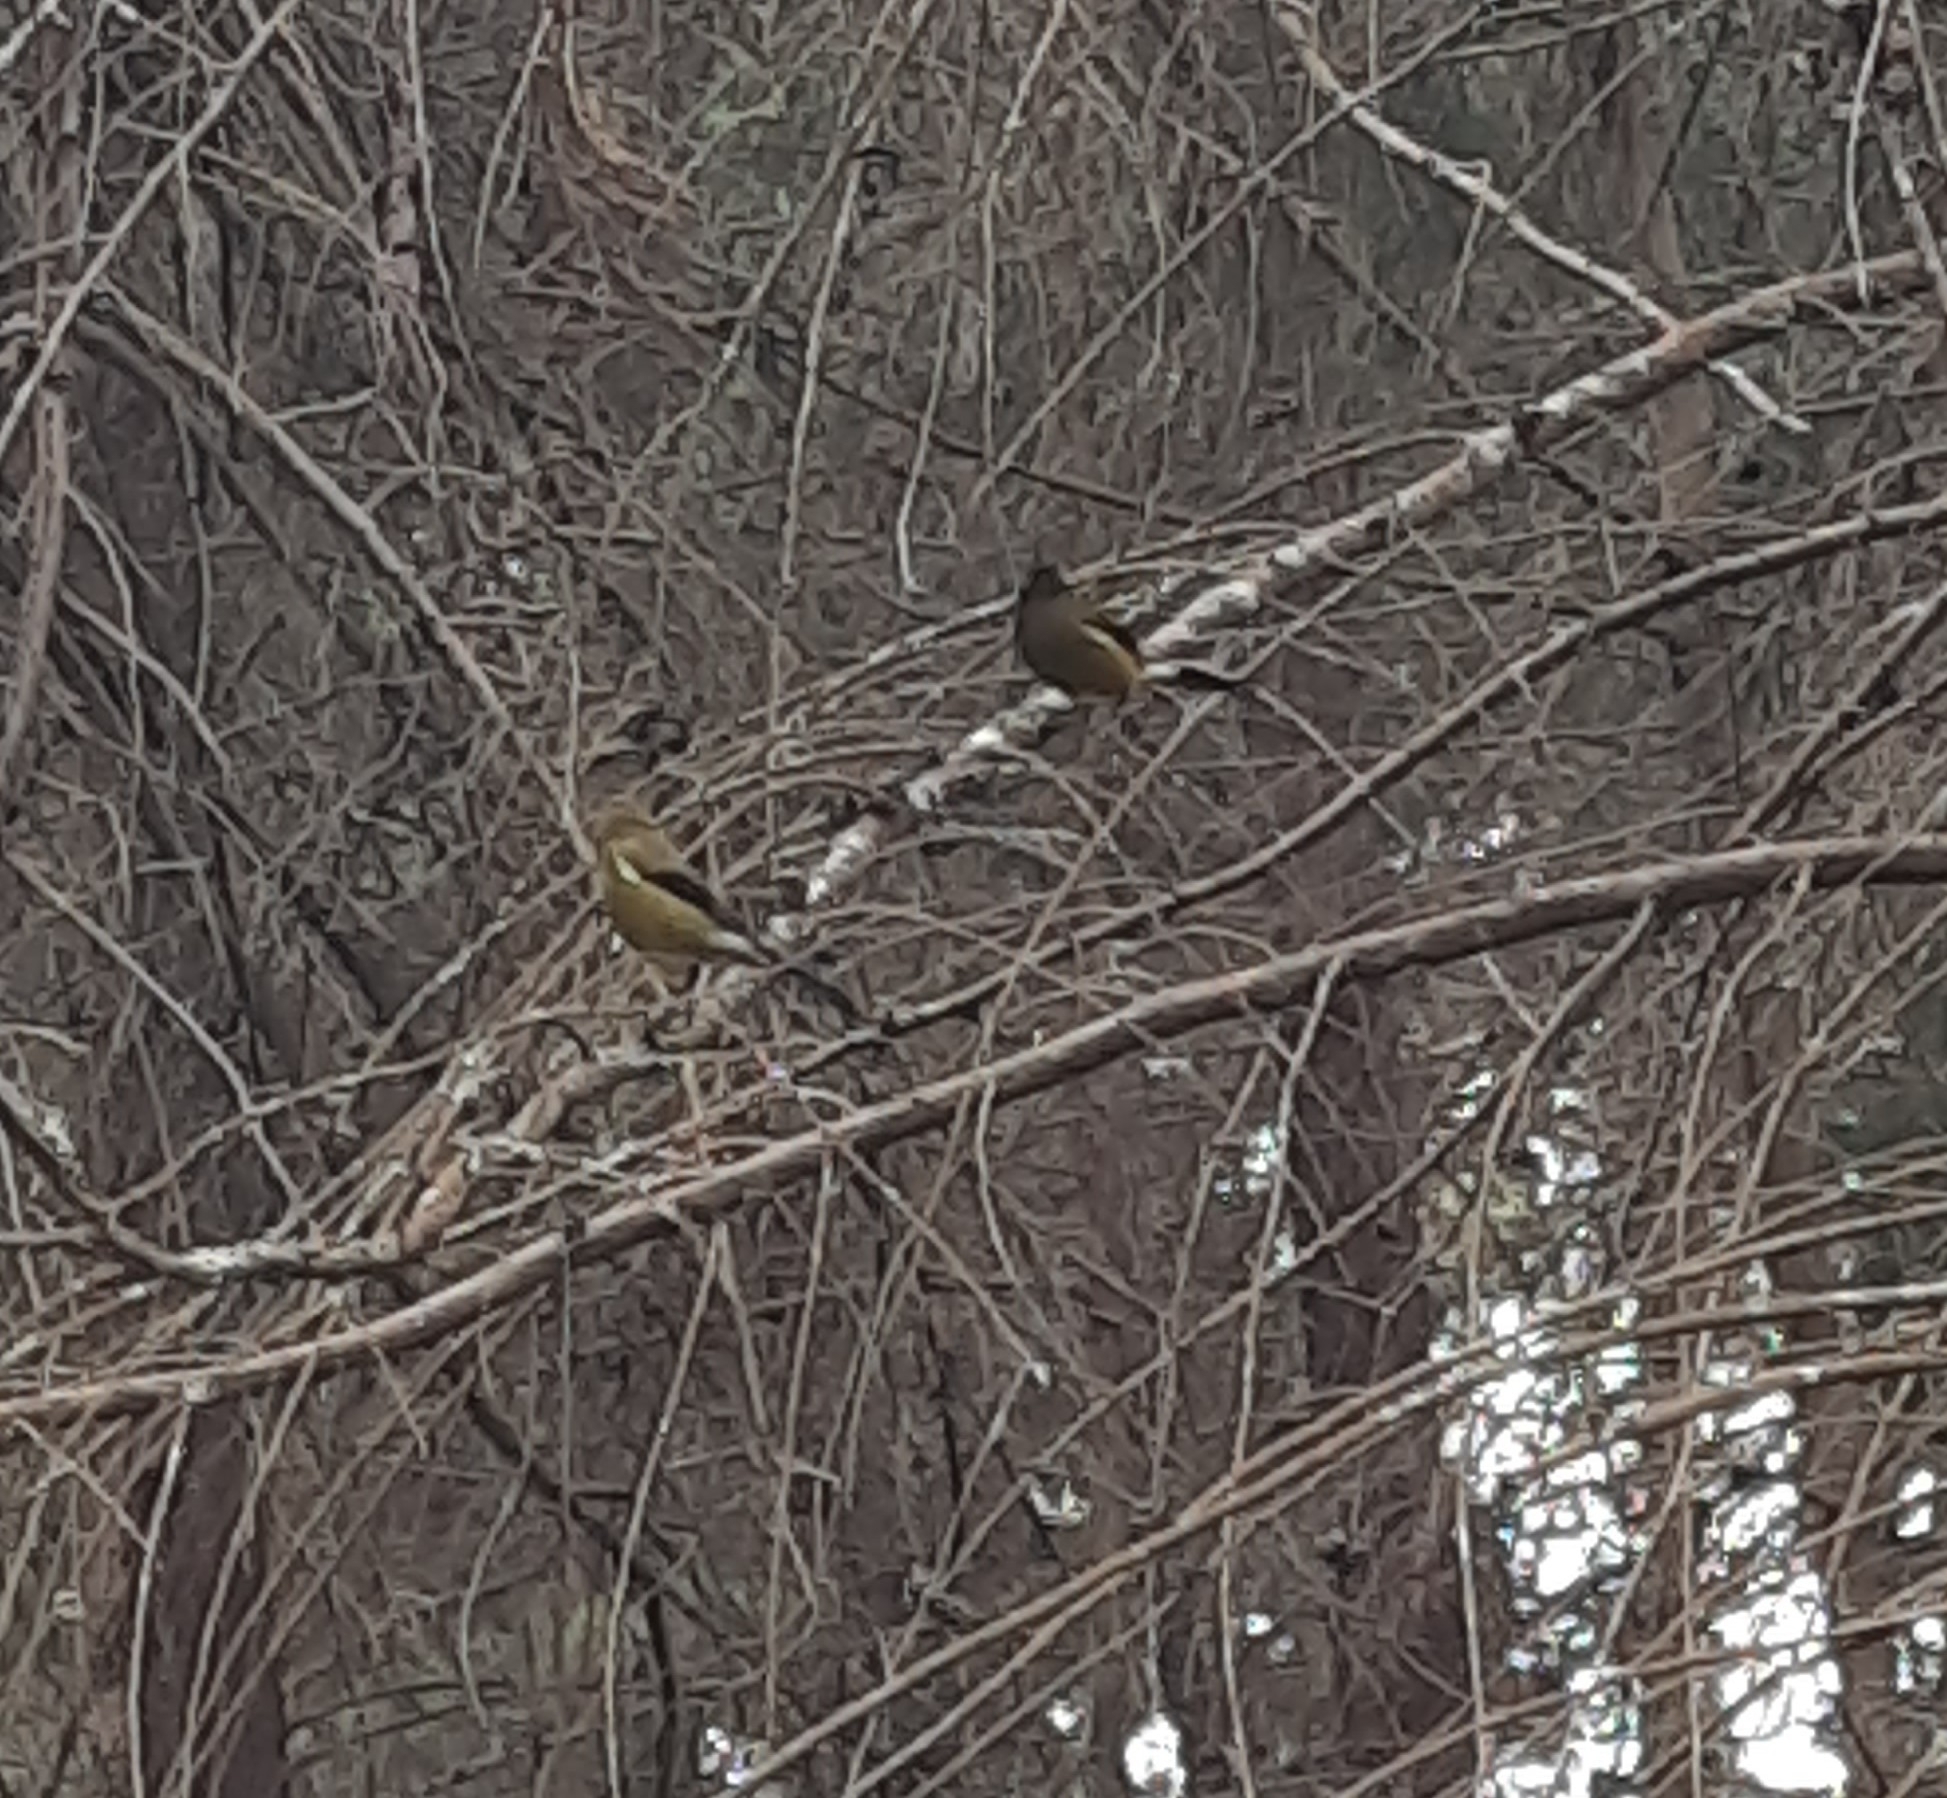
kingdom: Animalia
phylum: Chordata
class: Aves
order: Passeriformes
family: Meliphagidae
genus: Anthornis
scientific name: Anthornis melanura
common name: New zealand bellbird
